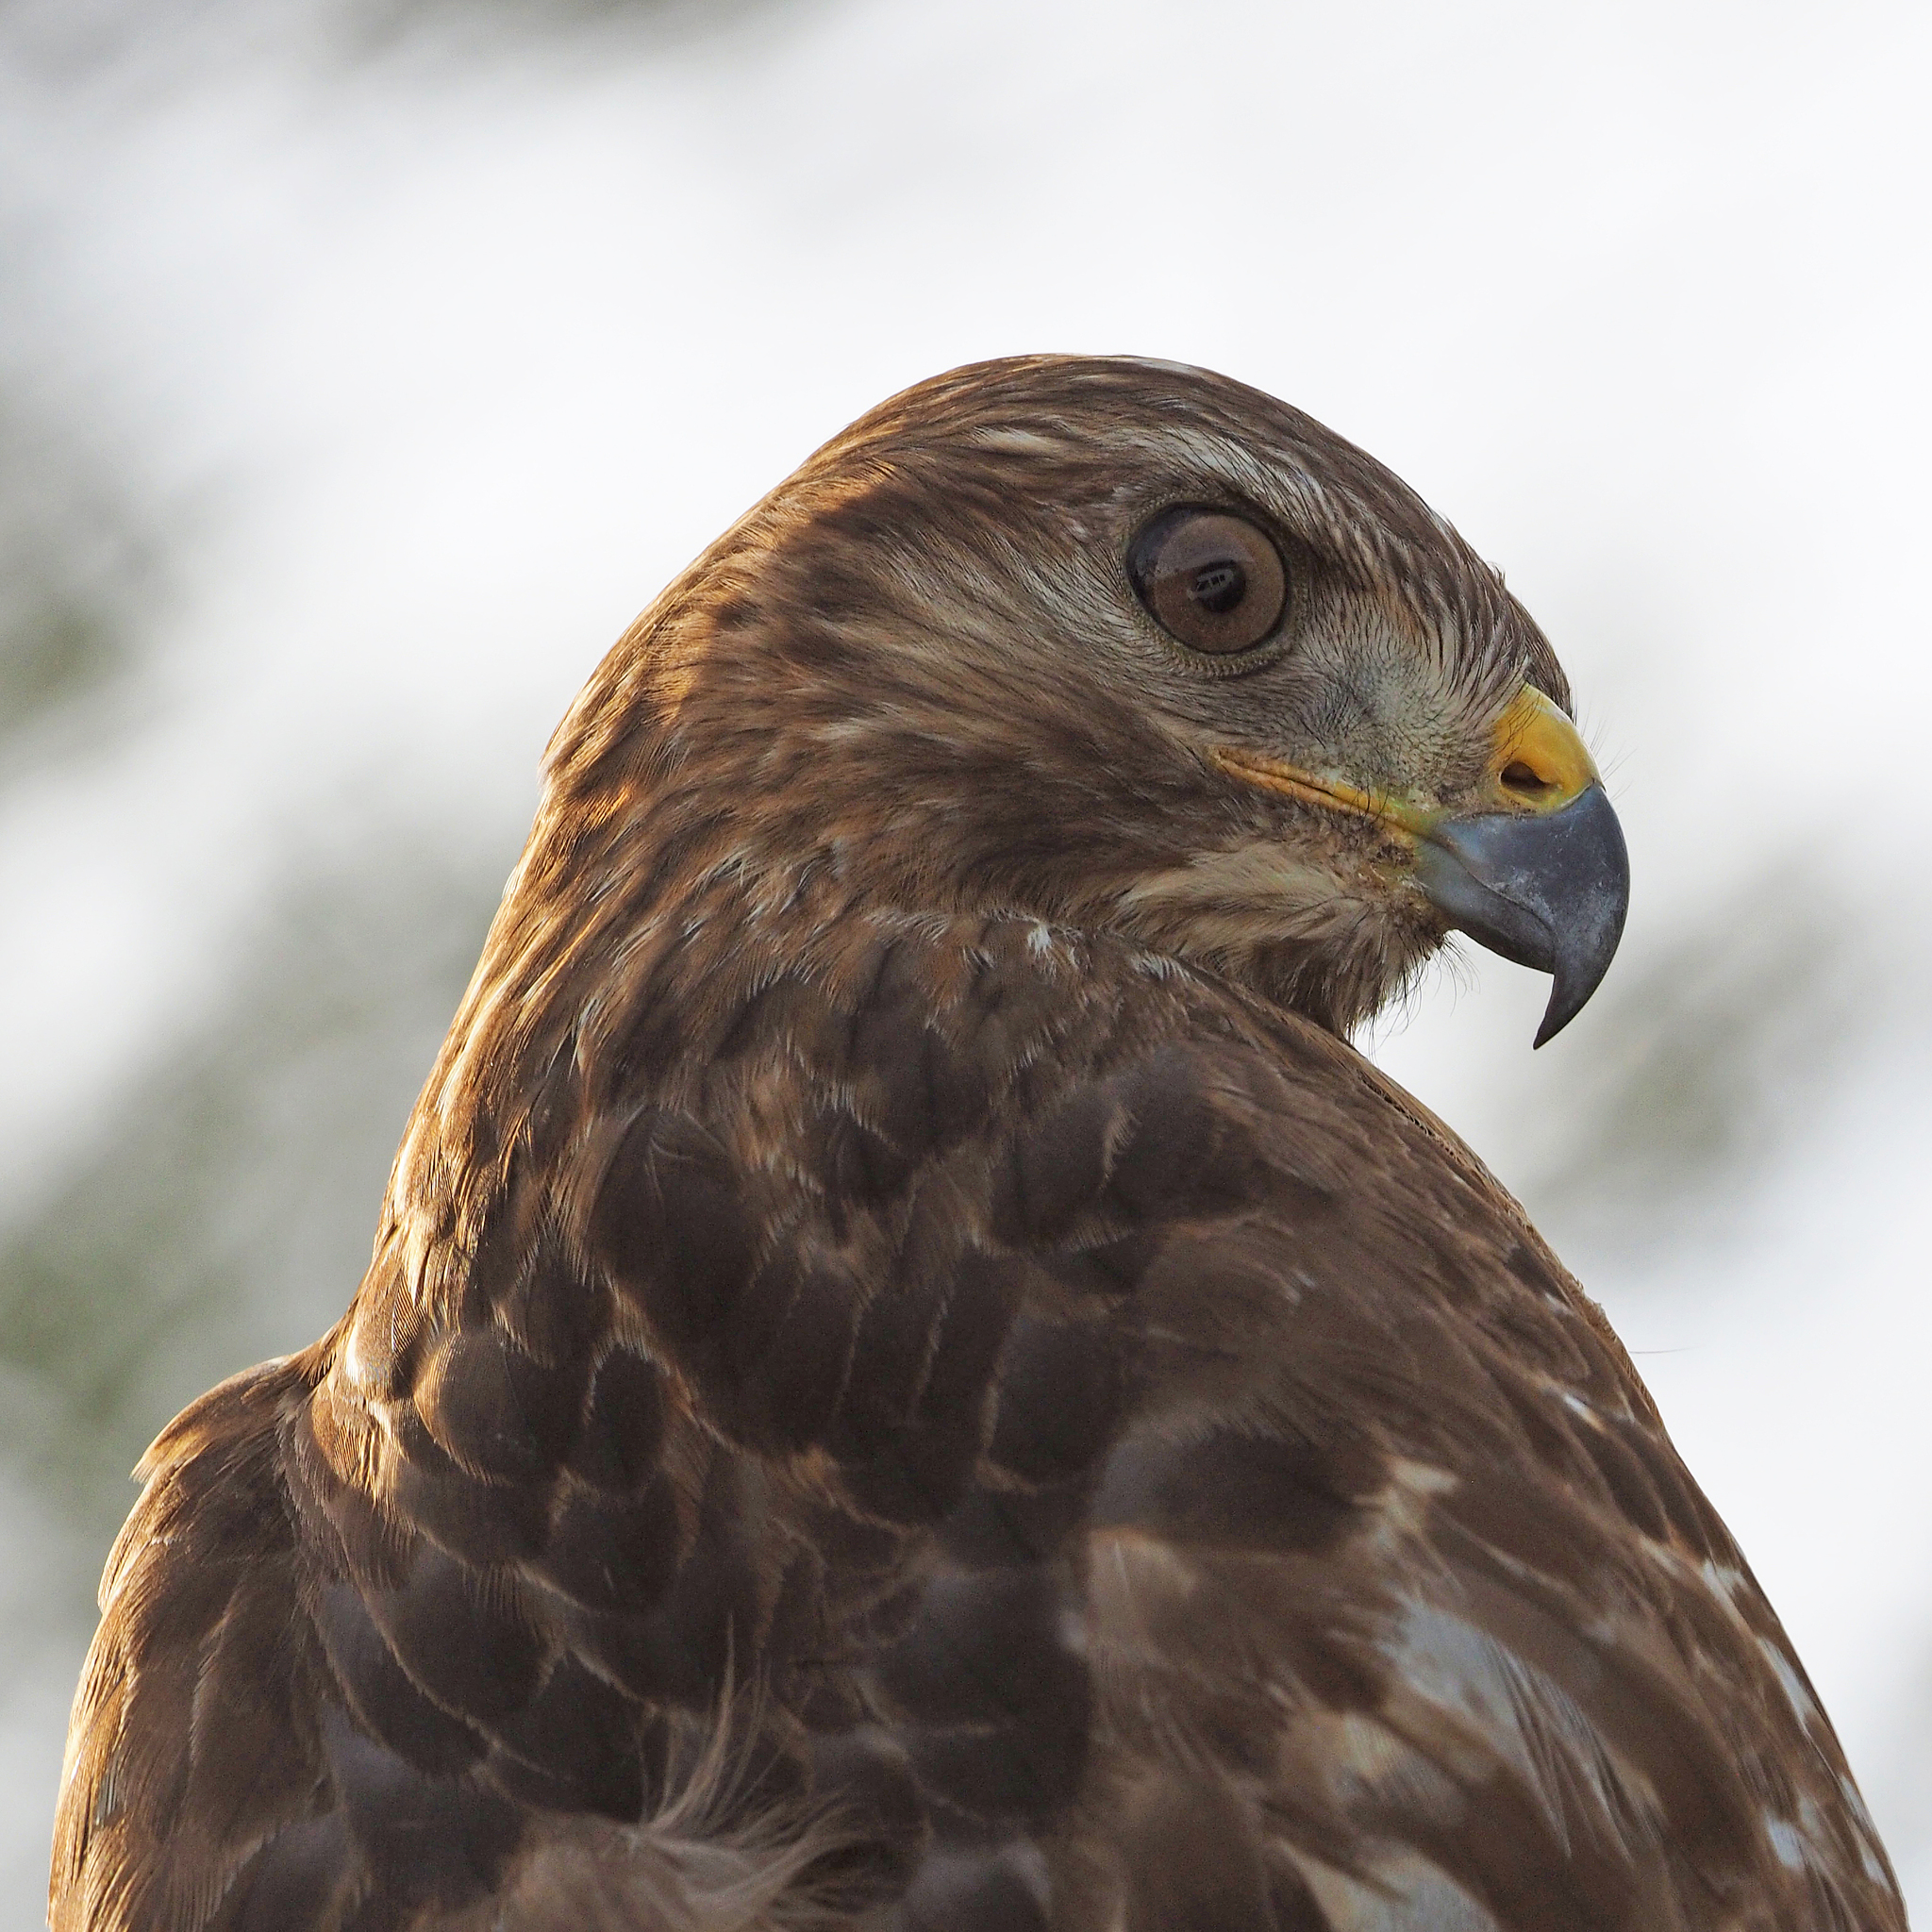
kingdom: Animalia
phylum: Chordata
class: Aves
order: Accipitriformes
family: Accipitridae
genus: Buteo
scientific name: Buteo lineatus
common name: Red-shouldered hawk
